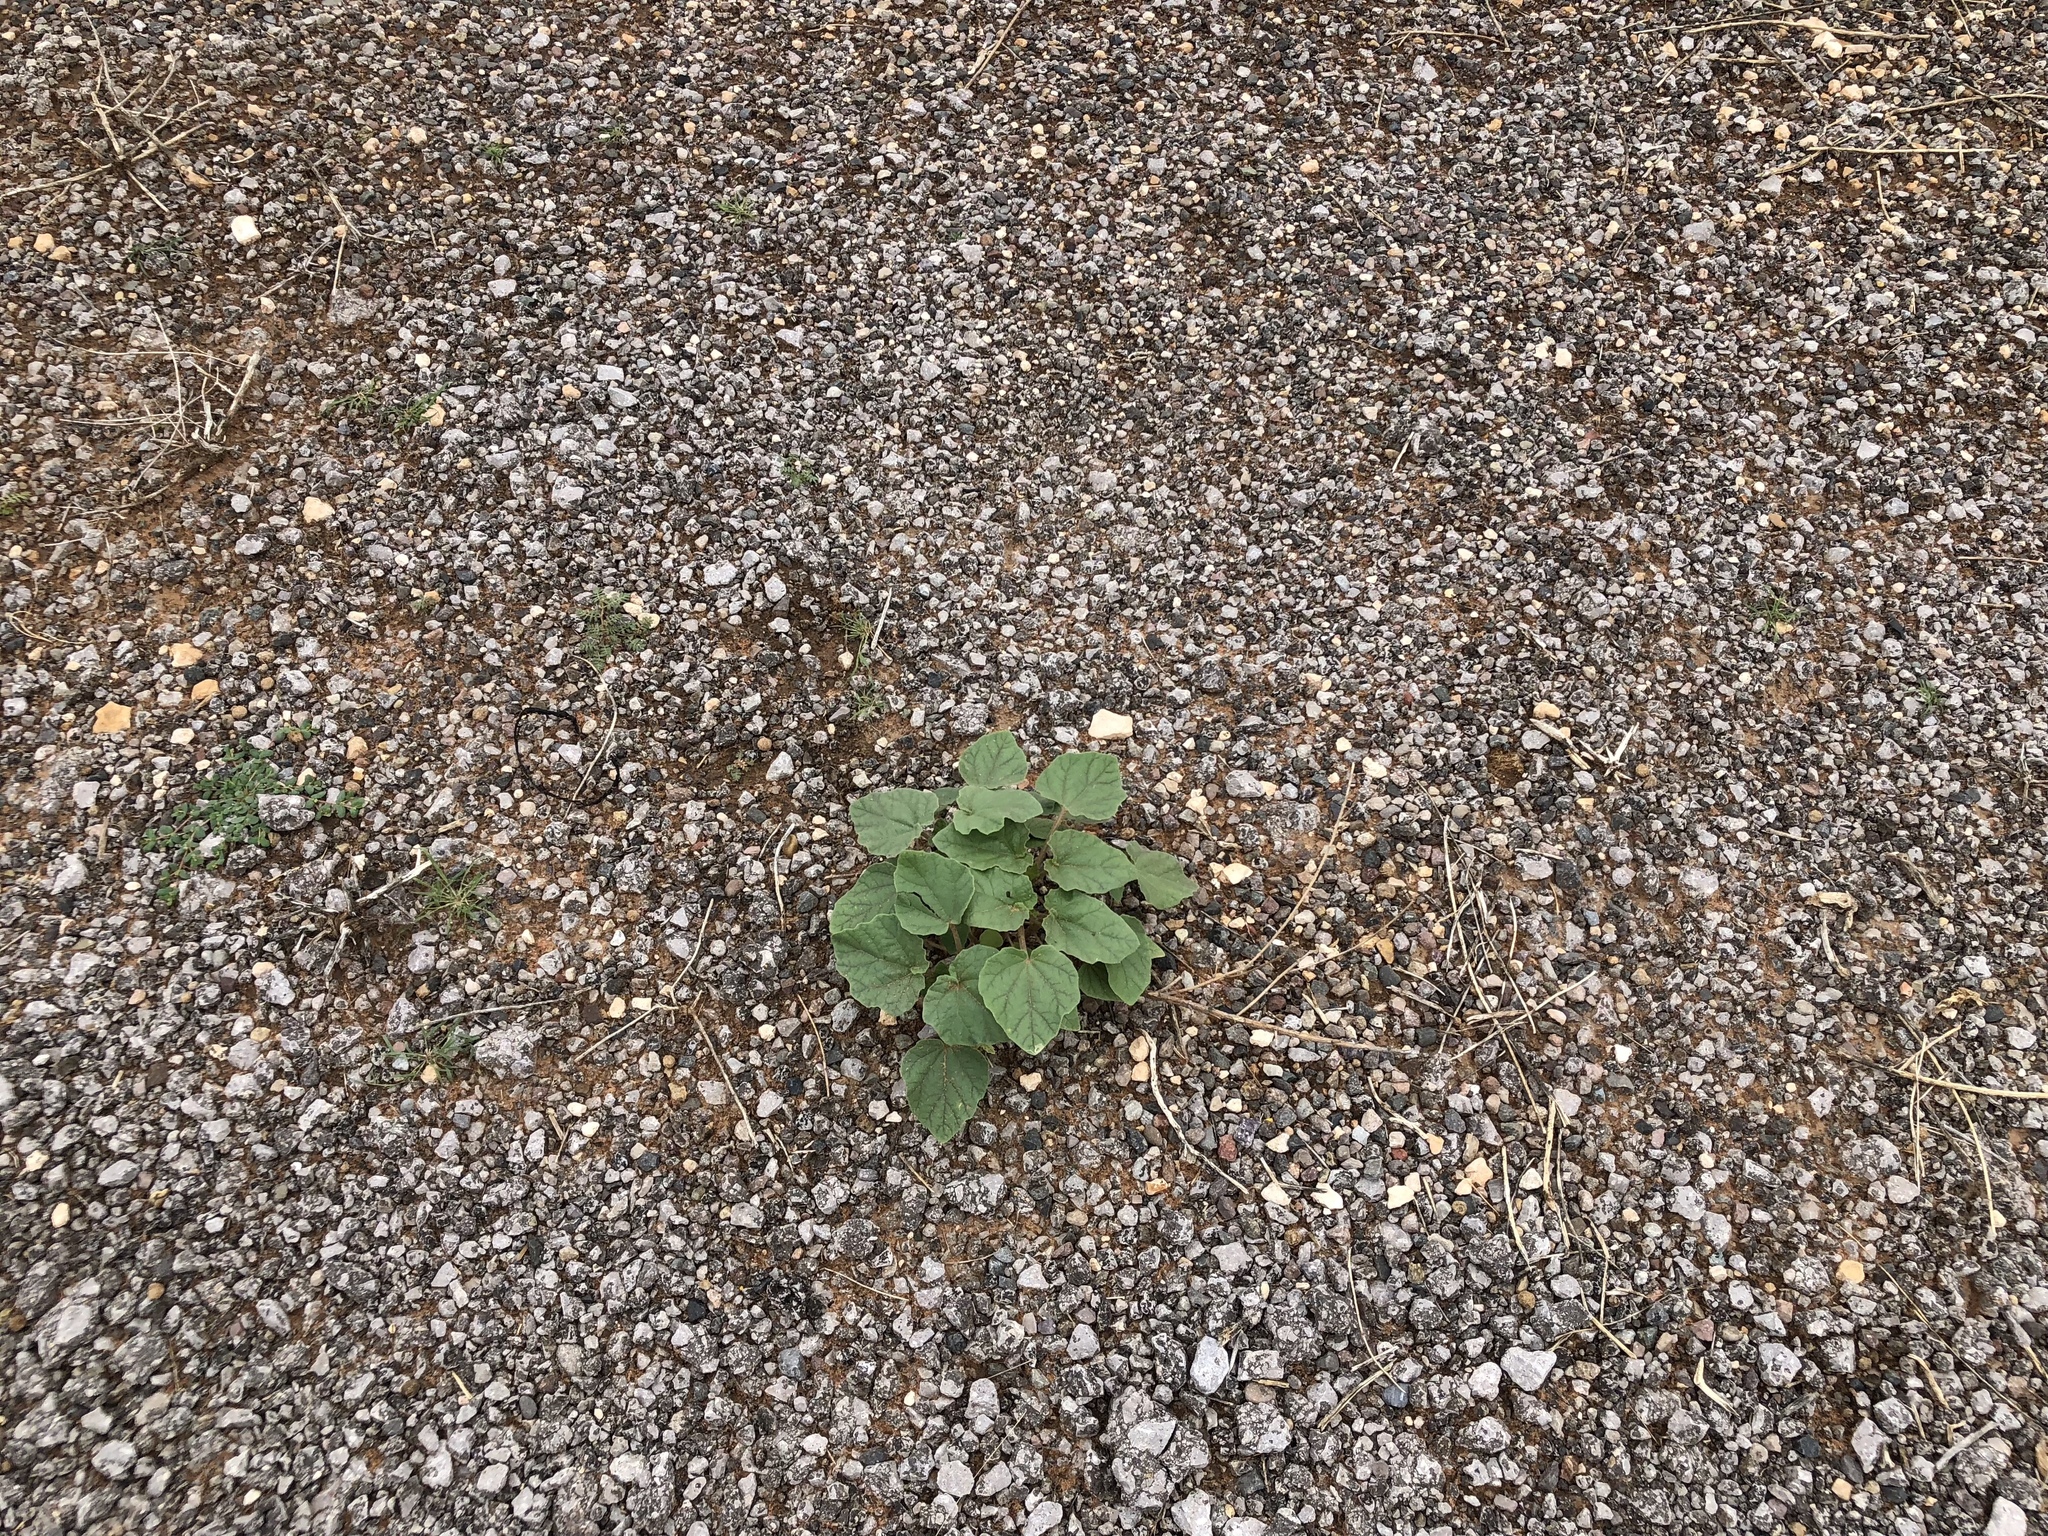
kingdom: Plantae
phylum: Tracheophyta
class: Magnoliopsida
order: Lamiales
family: Martyniaceae
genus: Proboscidea
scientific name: Proboscidea parviflora
